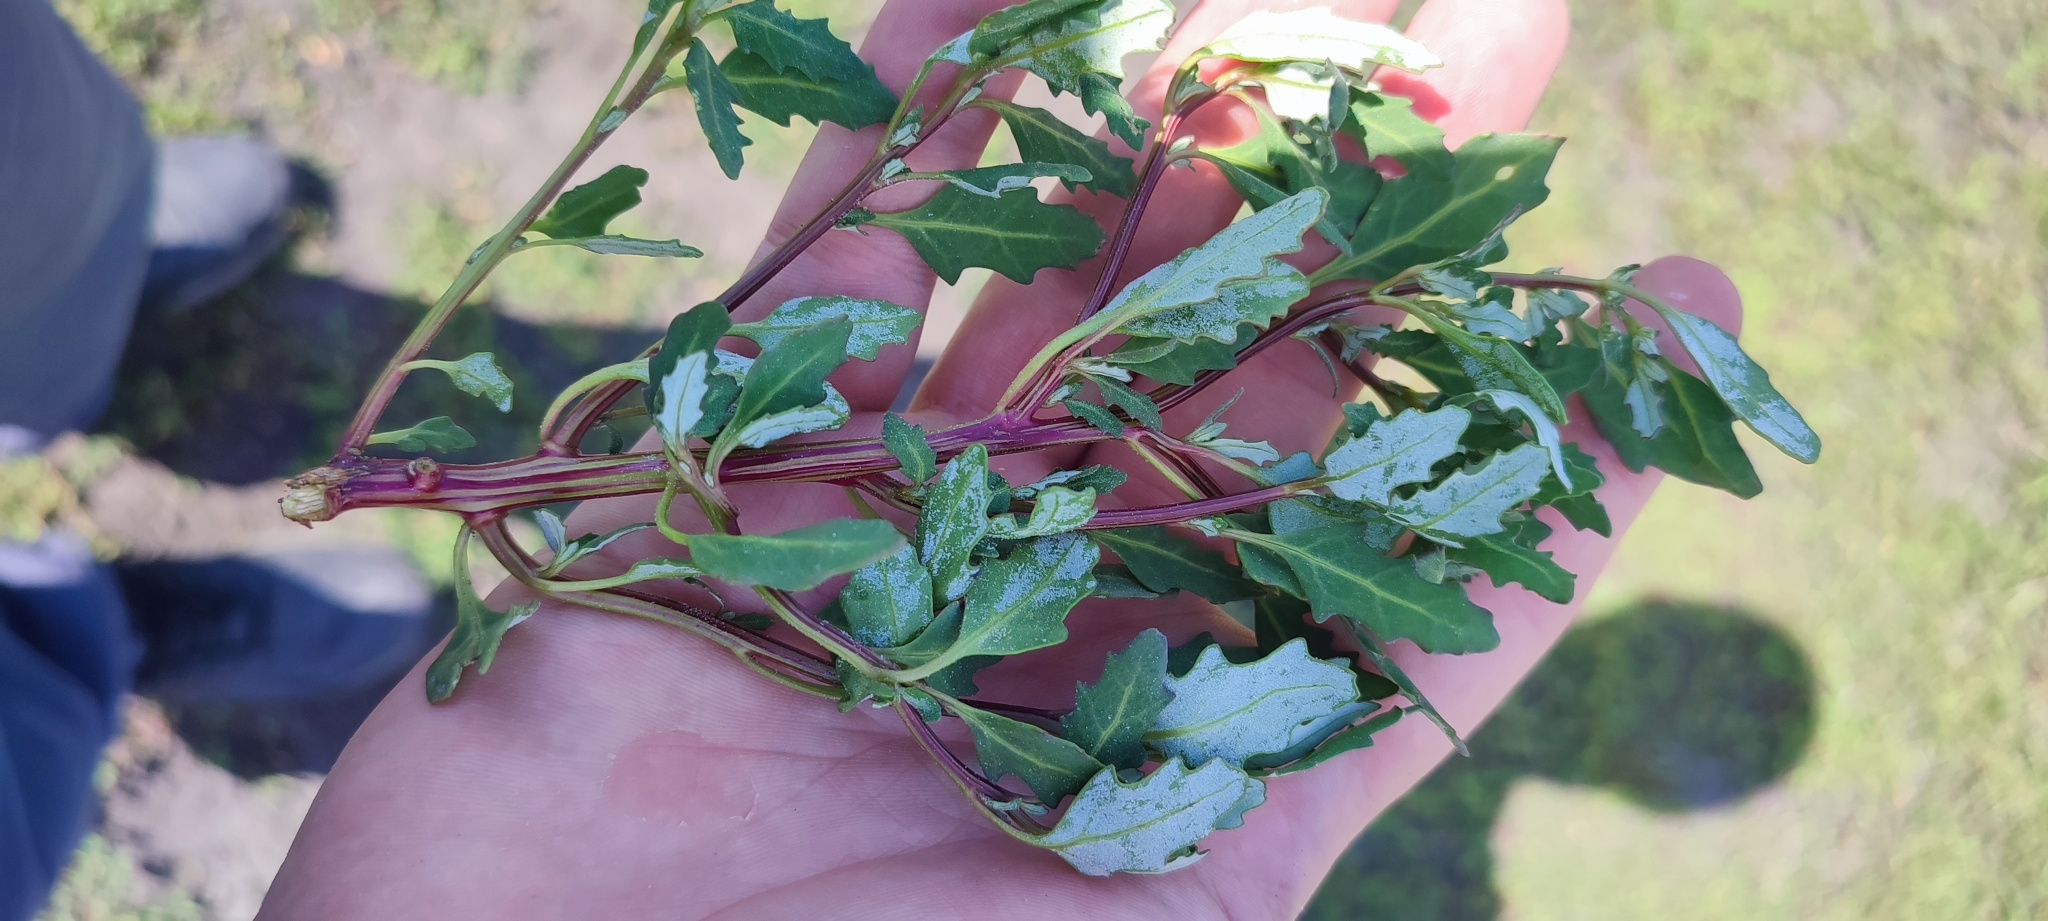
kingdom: Plantae
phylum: Tracheophyta
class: Magnoliopsida
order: Caryophyllales
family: Amaranthaceae
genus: Oxybasis
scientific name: Oxybasis glauca
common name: Glaucous goosefoot
